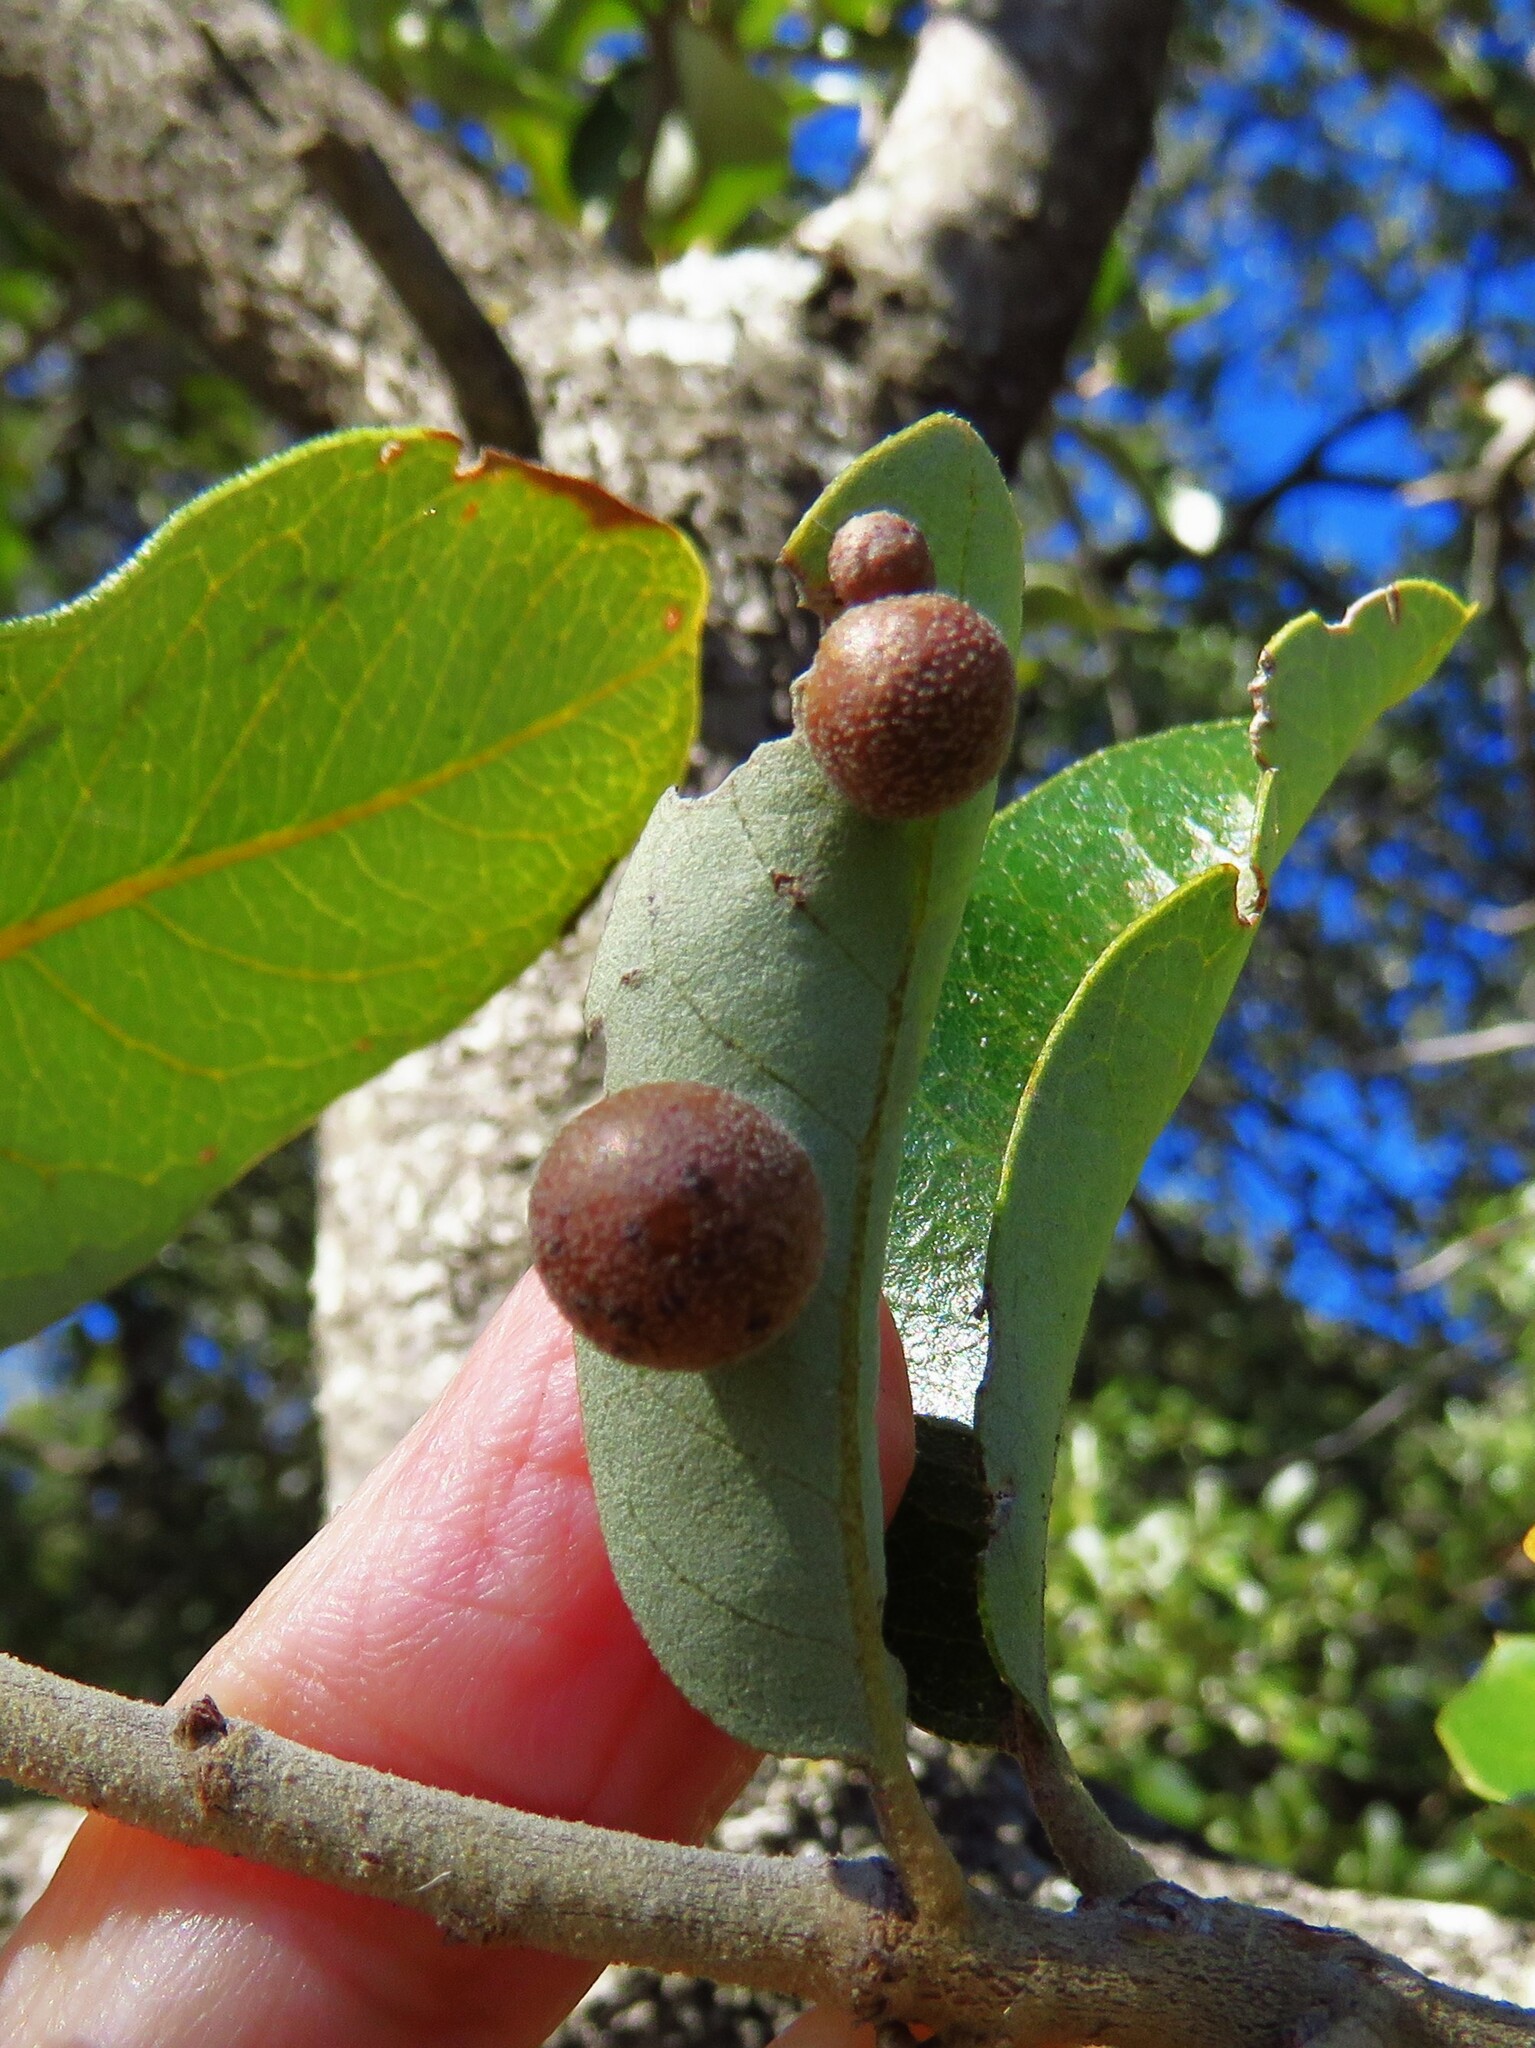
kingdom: Animalia
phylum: Arthropoda
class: Insecta
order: Hymenoptera
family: Cynipidae
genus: Belonocnema
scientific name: Belonocnema kinseyi
